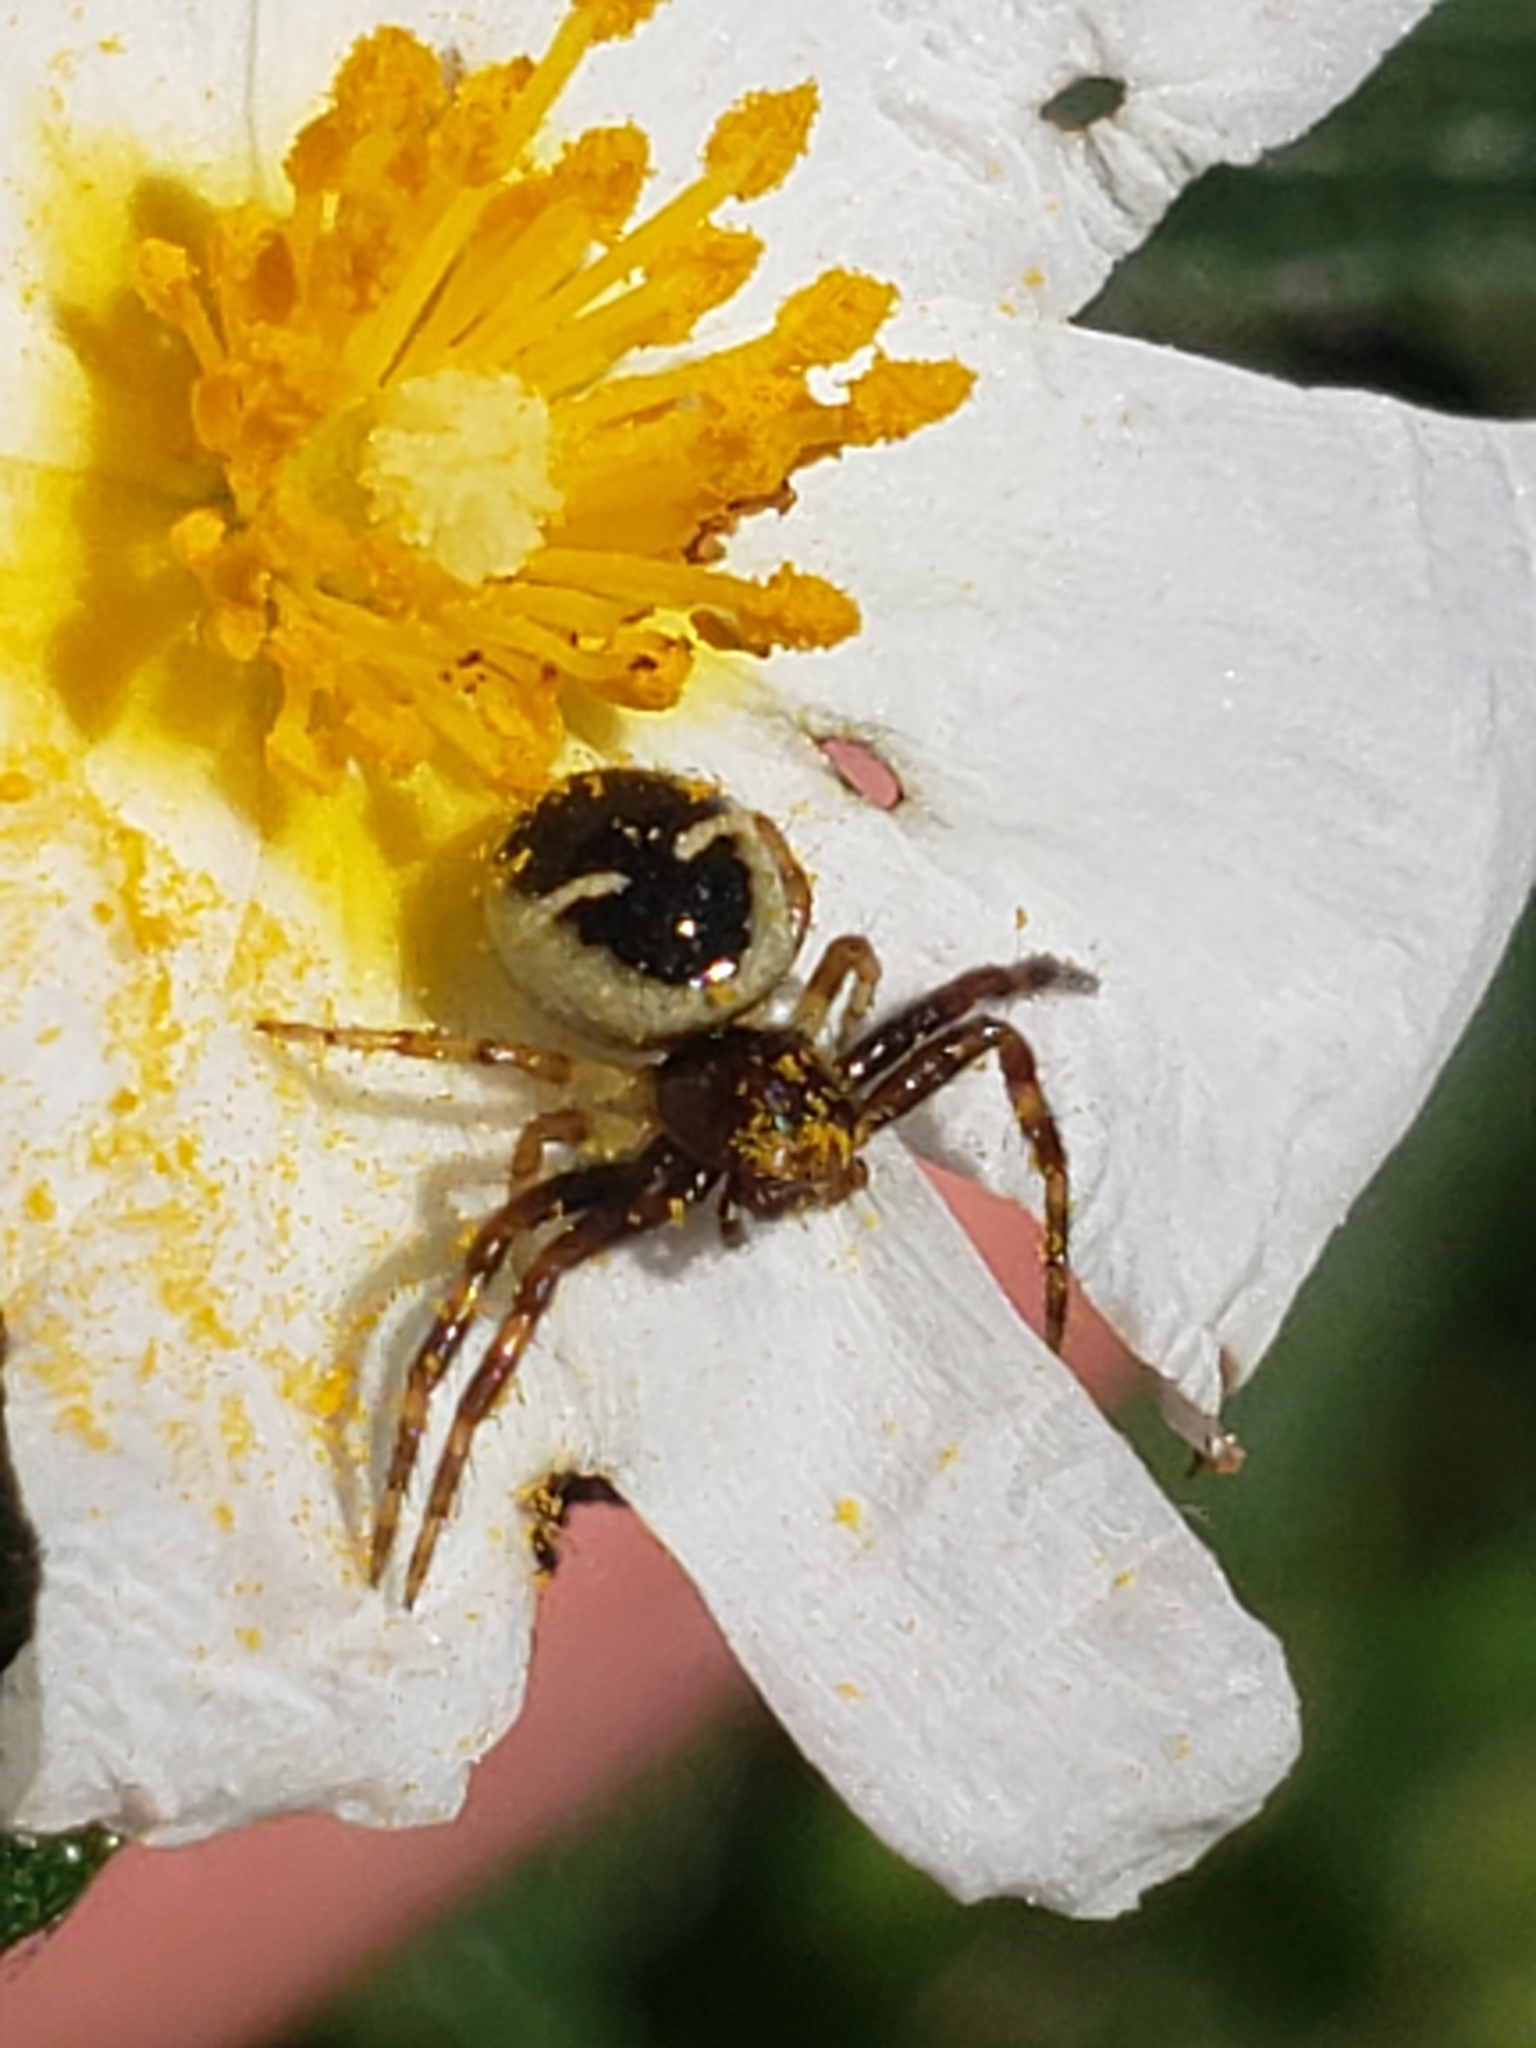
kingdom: Animalia
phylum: Arthropoda
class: Arachnida
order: Araneae
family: Thomisidae
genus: Synema
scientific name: Synema globosum
